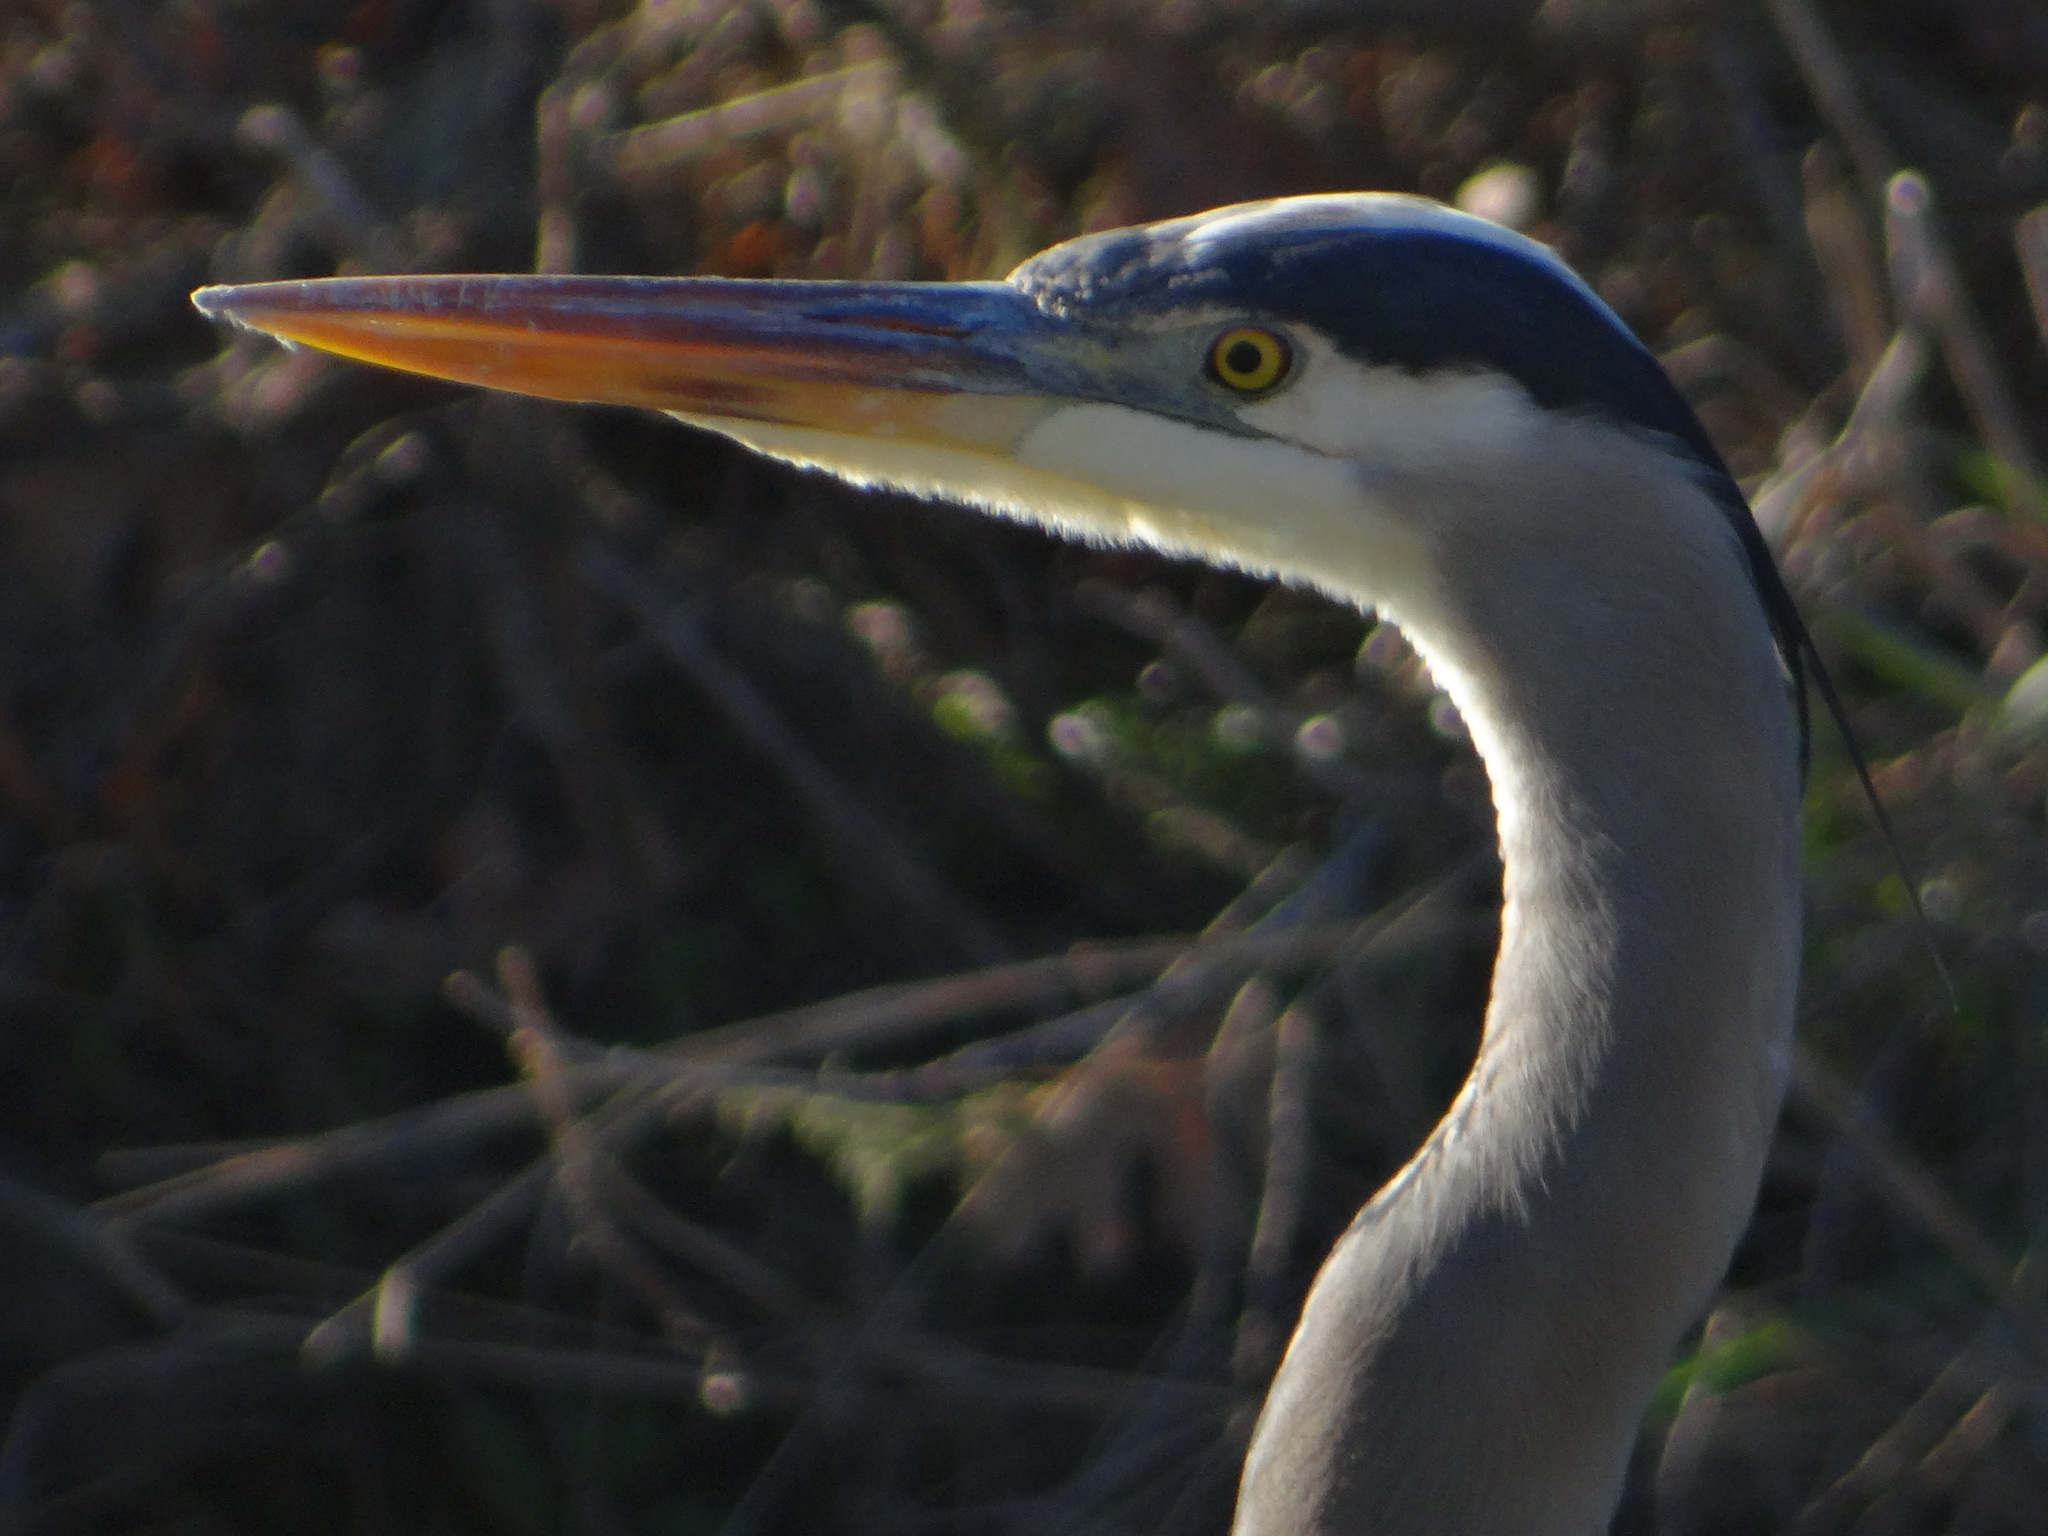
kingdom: Animalia
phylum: Chordata
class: Aves
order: Pelecaniformes
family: Ardeidae
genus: Ardea
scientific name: Ardea herodias
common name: Great blue heron
